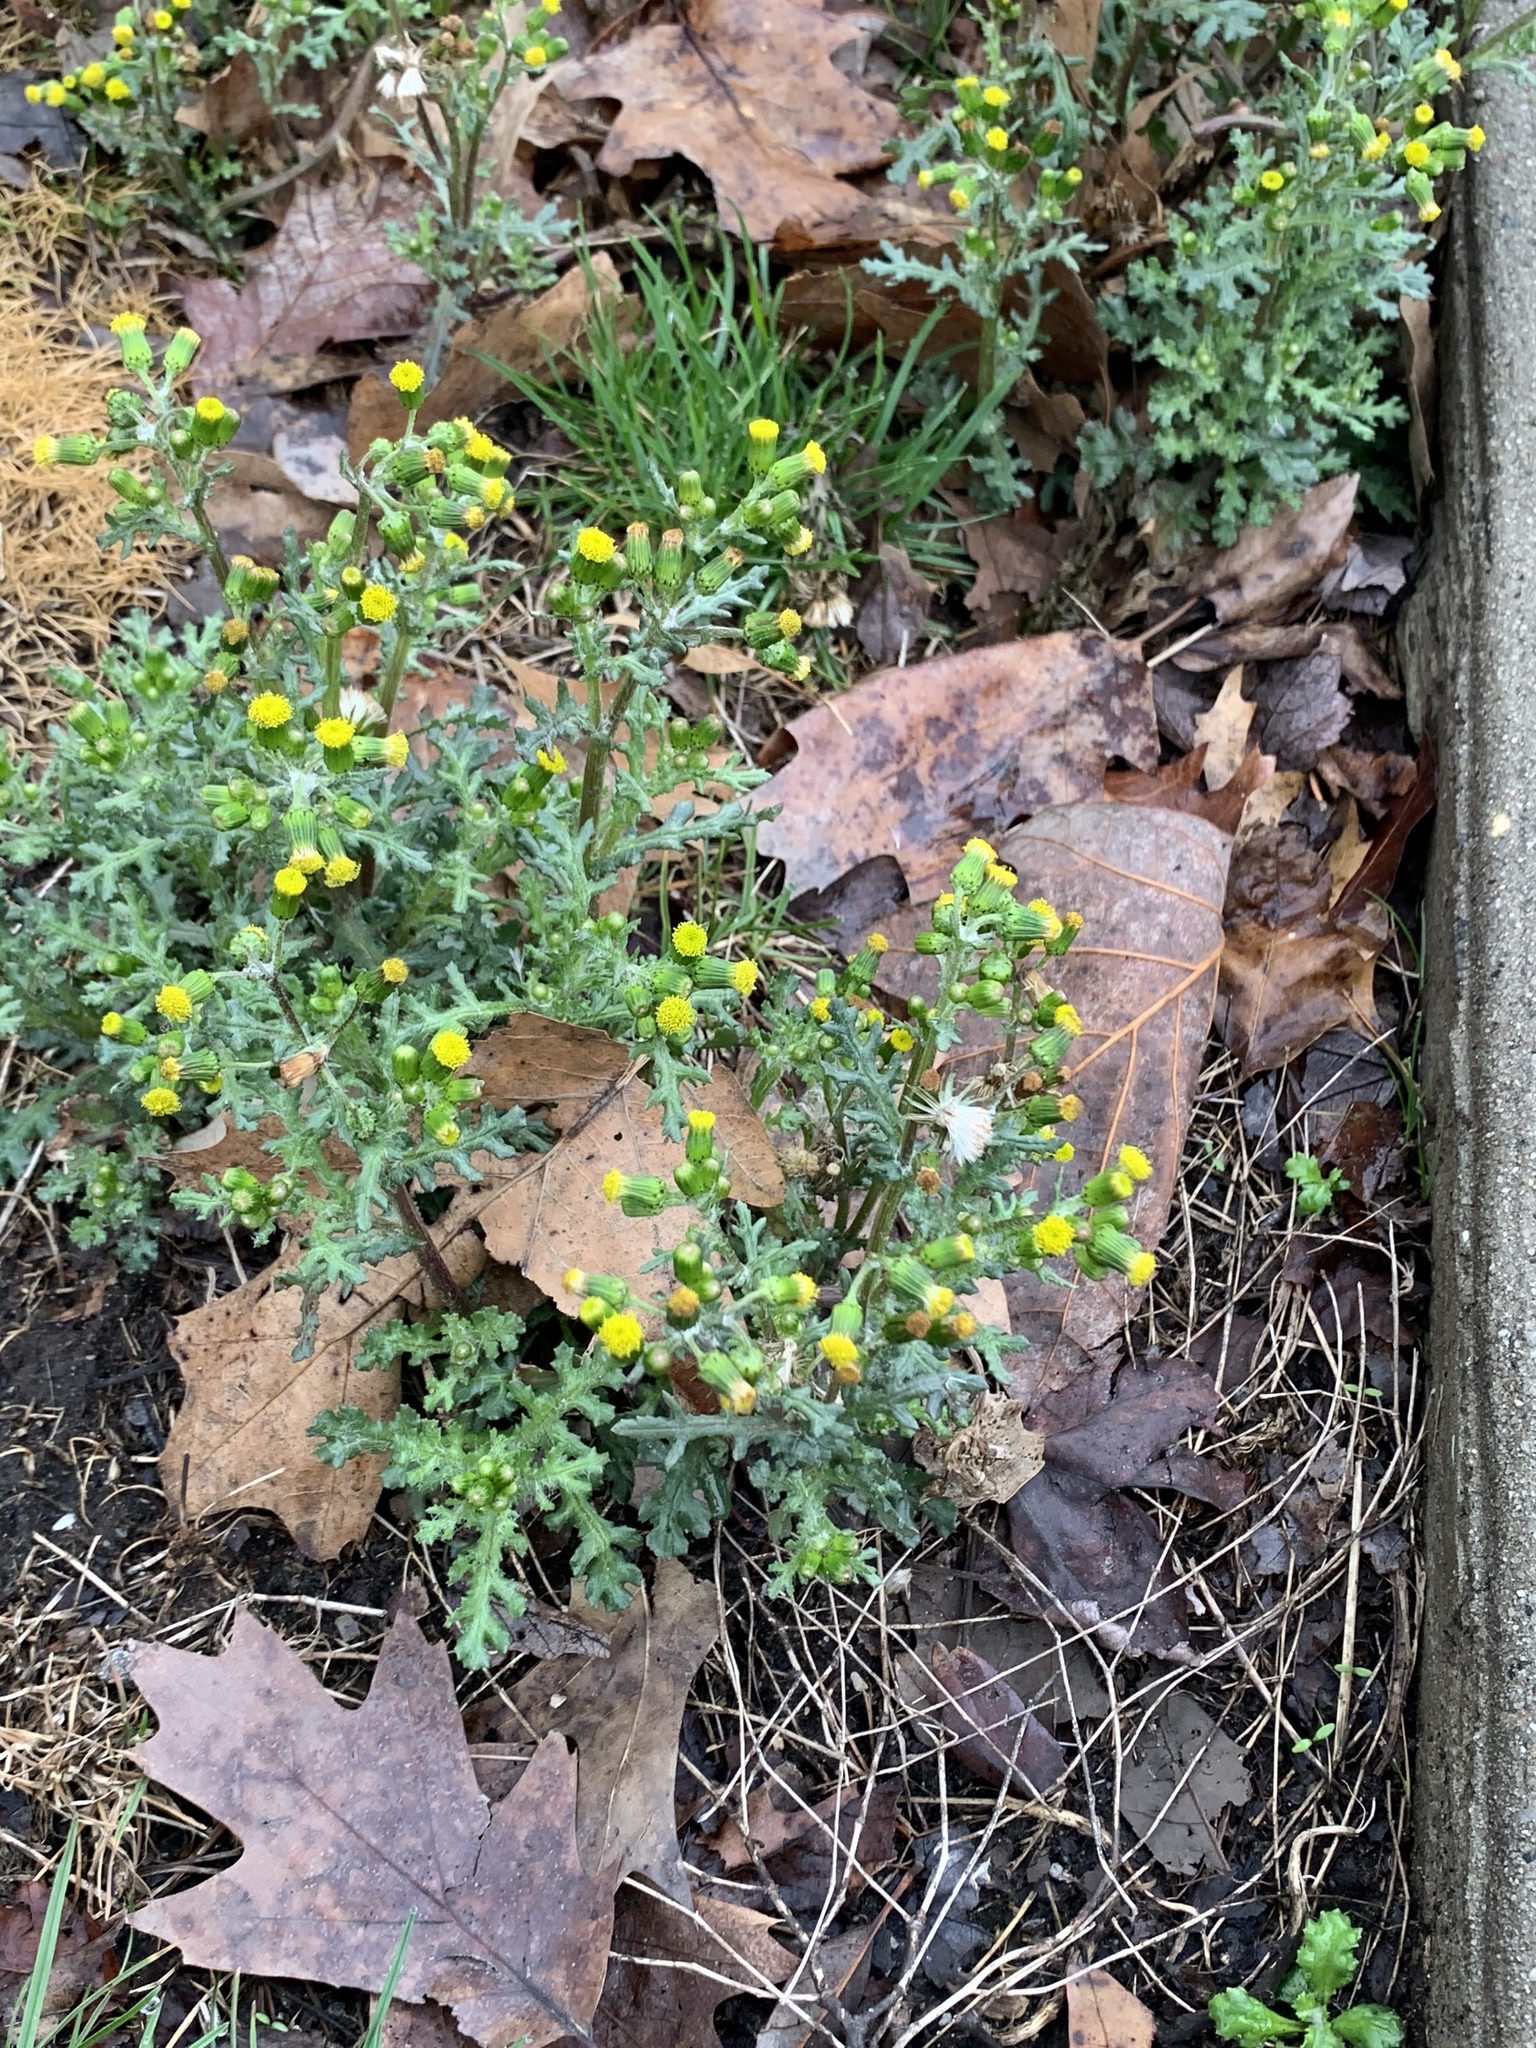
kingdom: Plantae
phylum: Tracheophyta
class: Magnoliopsida
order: Asterales
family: Asteraceae
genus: Senecio
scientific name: Senecio vulgaris
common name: Old-man-in-the-spring
